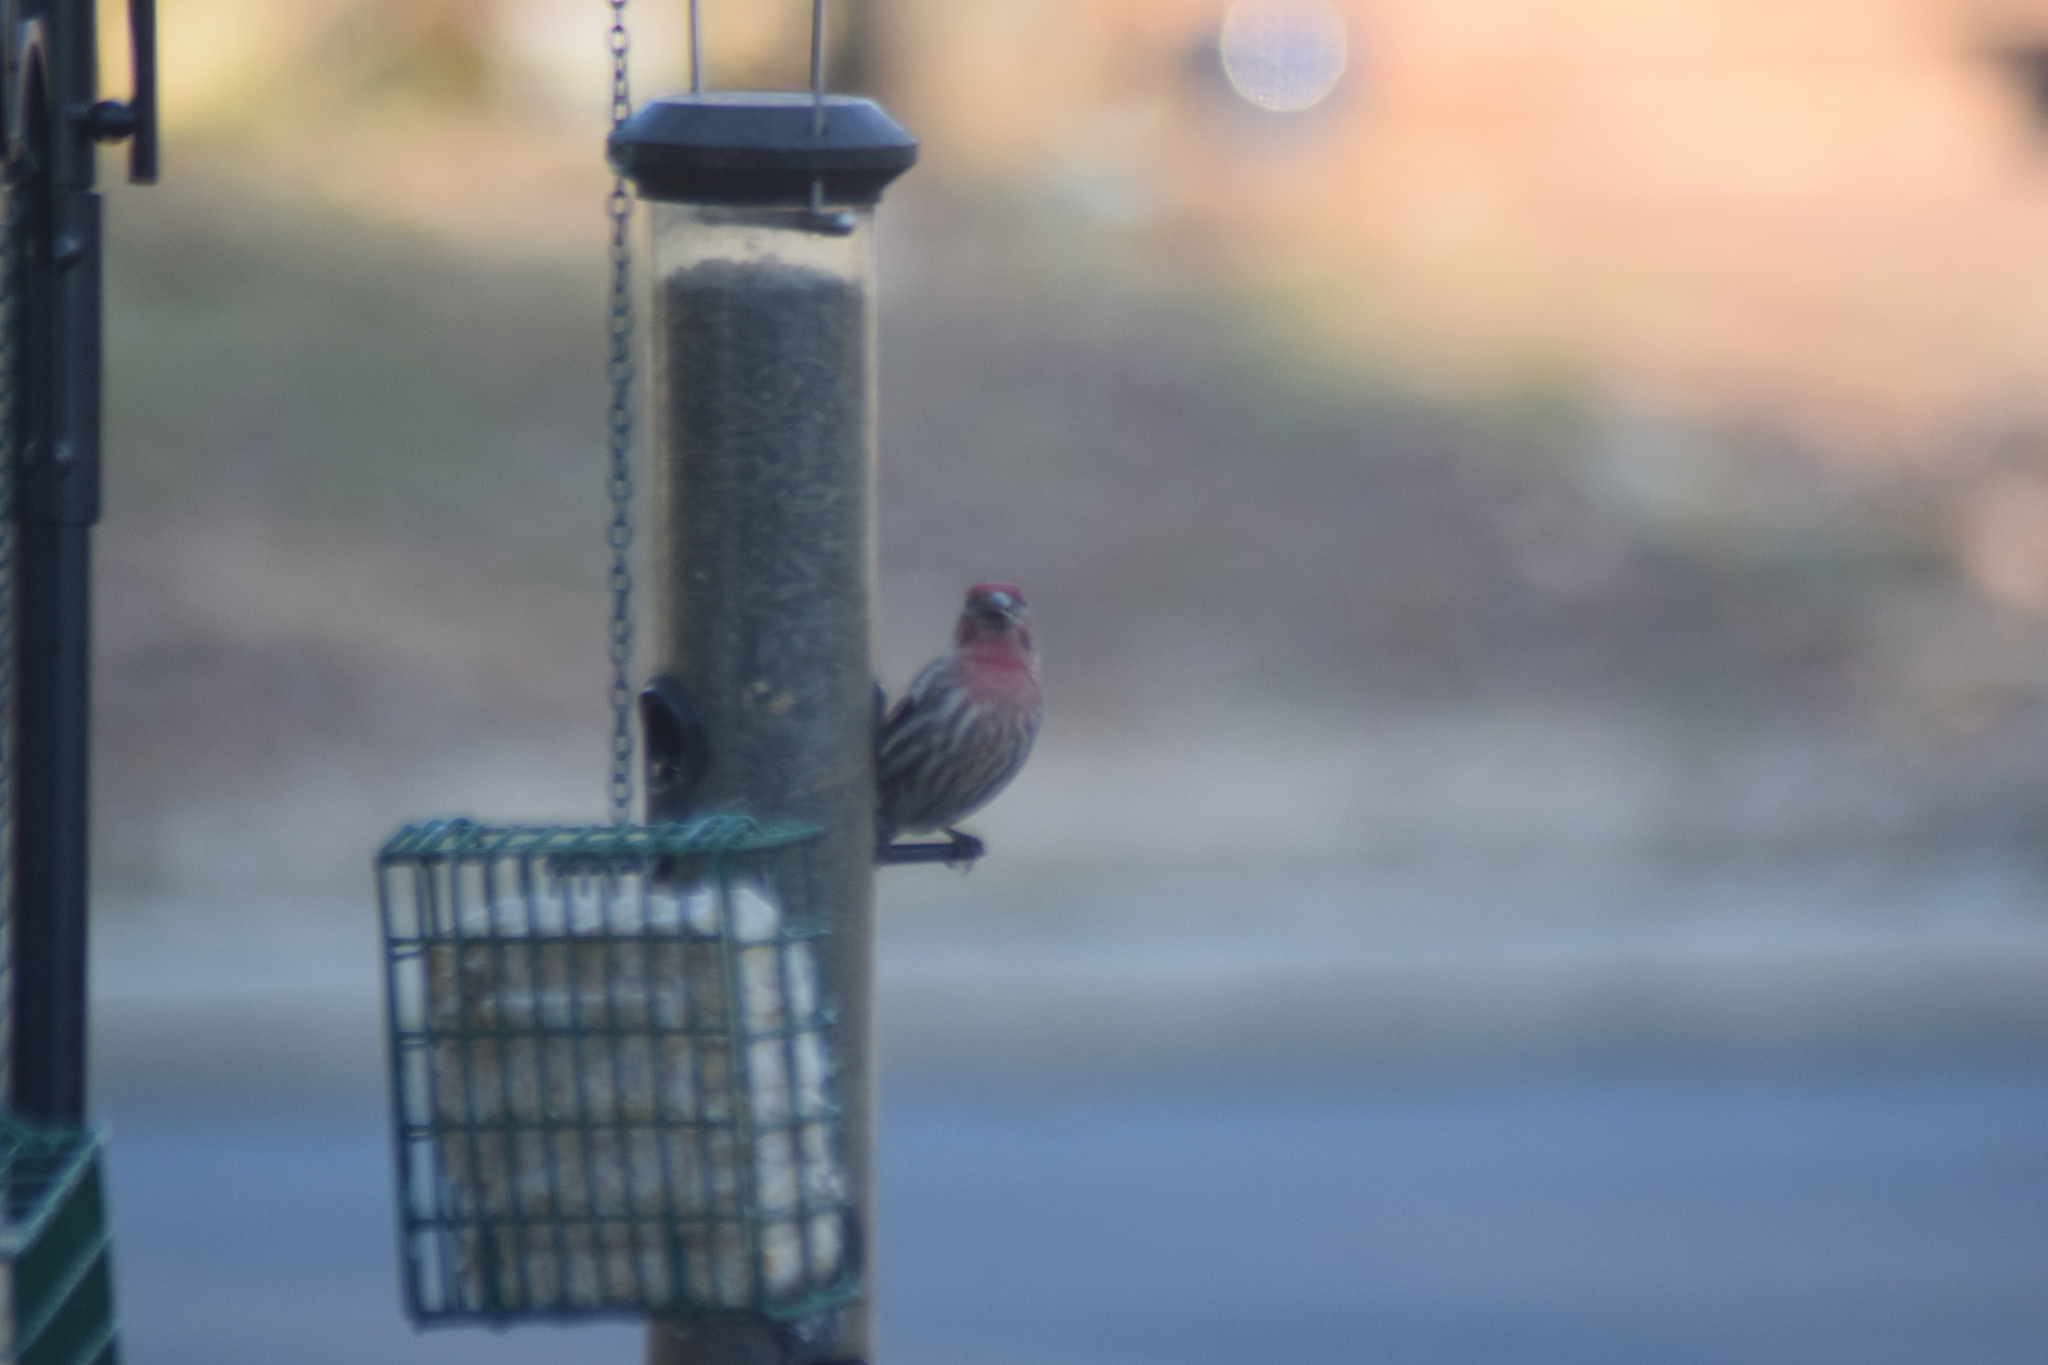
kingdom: Animalia
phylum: Chordata
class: Aves
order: Passeriformes
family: Fringillidae
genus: Haemorhous
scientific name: Haemorhous mexicanus
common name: House finch
